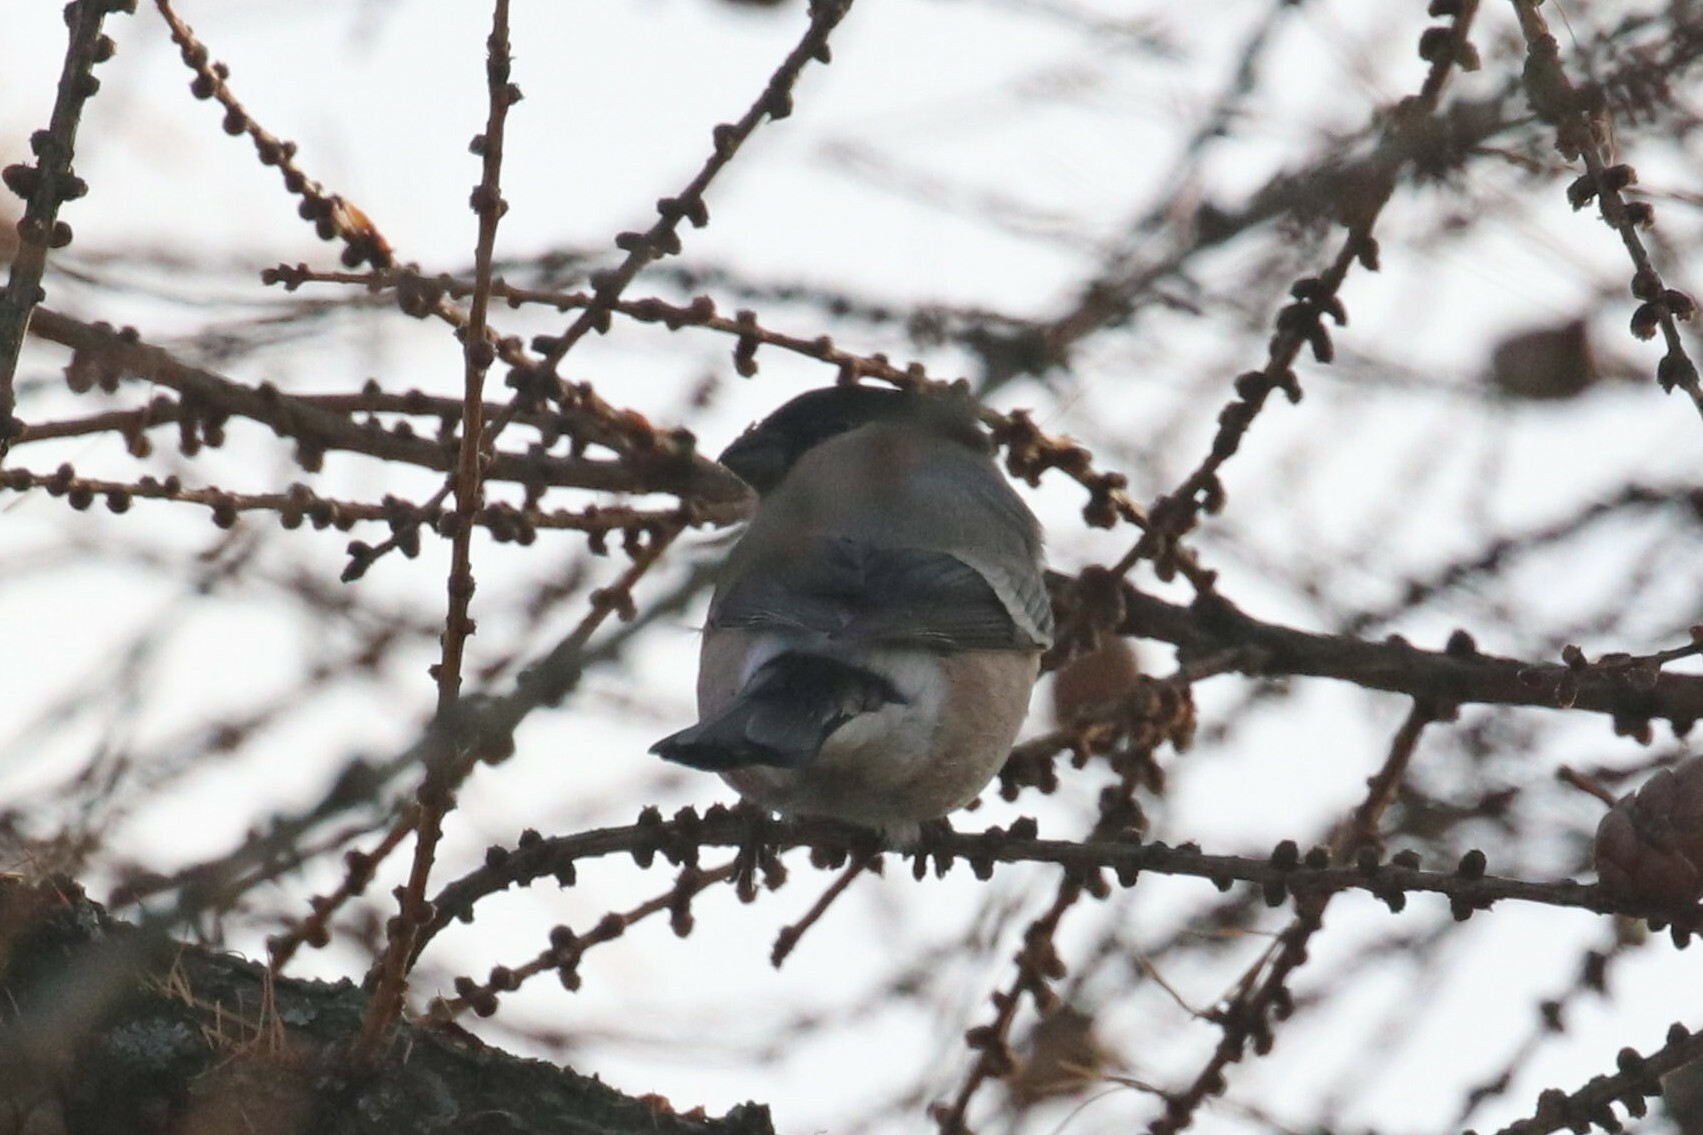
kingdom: Animalia
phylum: Chordata
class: Aves
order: Passeriformes
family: Fringillidae
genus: Pyrrhula
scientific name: Pyrrhula pyrrhula
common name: Eurasian bullfinch
